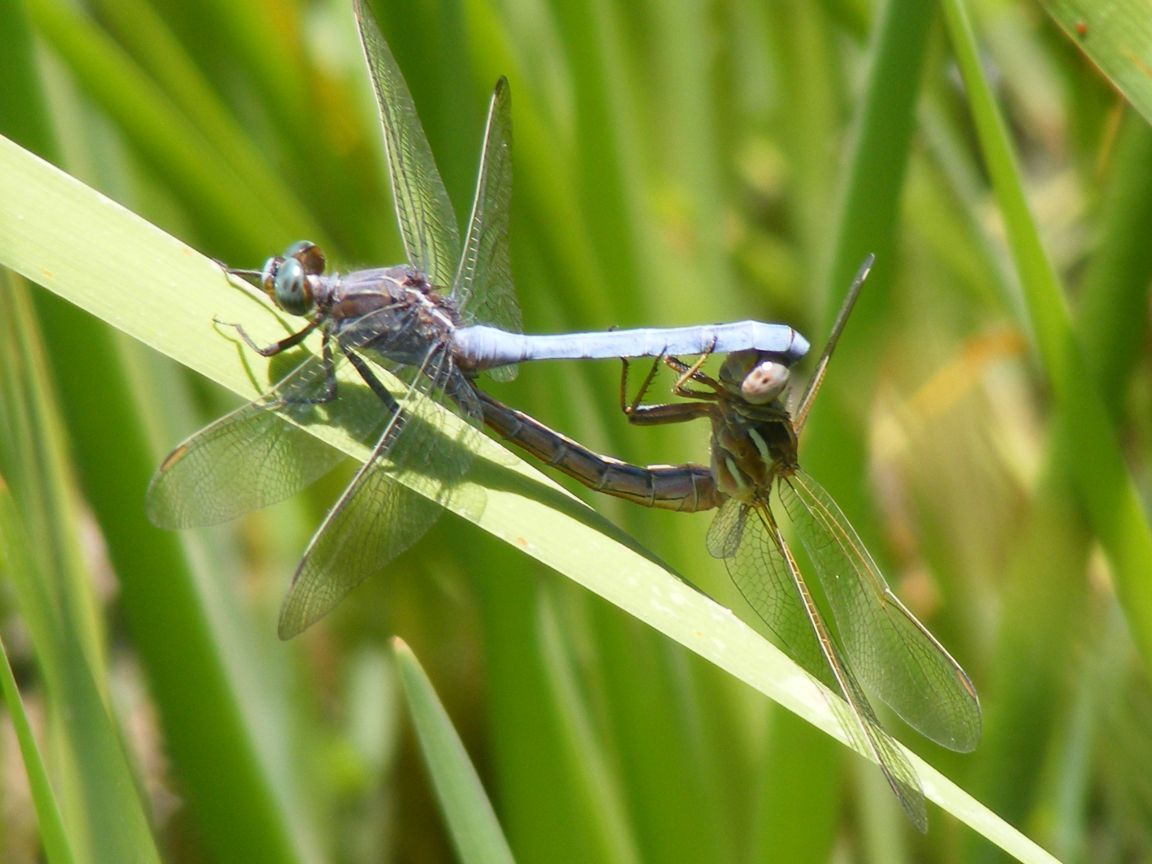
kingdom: Animalia
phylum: Arthropoda
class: Insecta
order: Odonata
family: Libellulidae
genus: Orthetrum
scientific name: Orthetrum caffrum
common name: Two-striped skimmer
